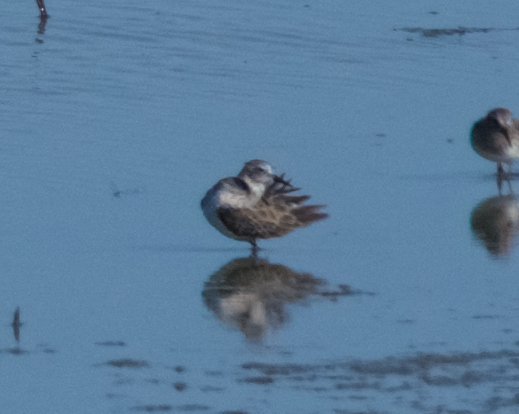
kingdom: Animalia
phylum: Chordata
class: Aves
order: Charadriiformes
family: Scolopacidae
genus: Calidris
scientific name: Calidris minutilla
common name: Least sandpiper
